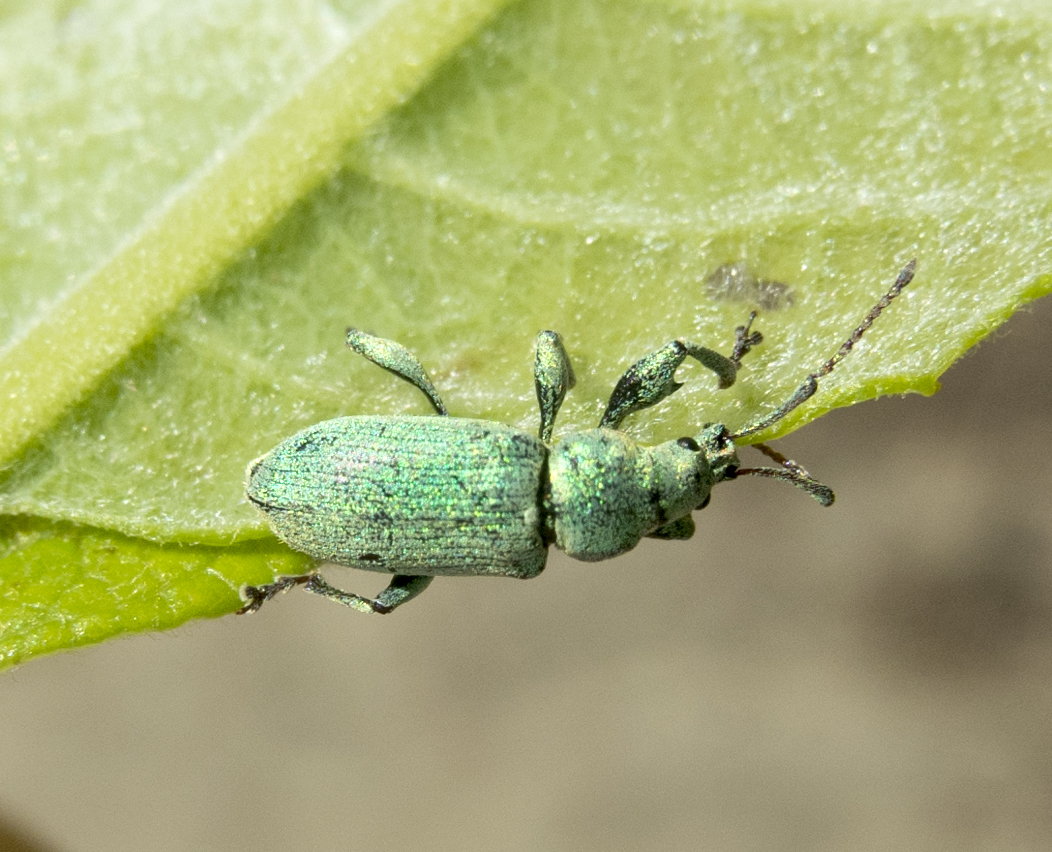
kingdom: Animalia
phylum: Arthropoda
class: Insecta
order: Coleoptera
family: Curculionidae
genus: Phyllobius
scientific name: Phyllobius maculicornis
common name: Green leaf weevil
